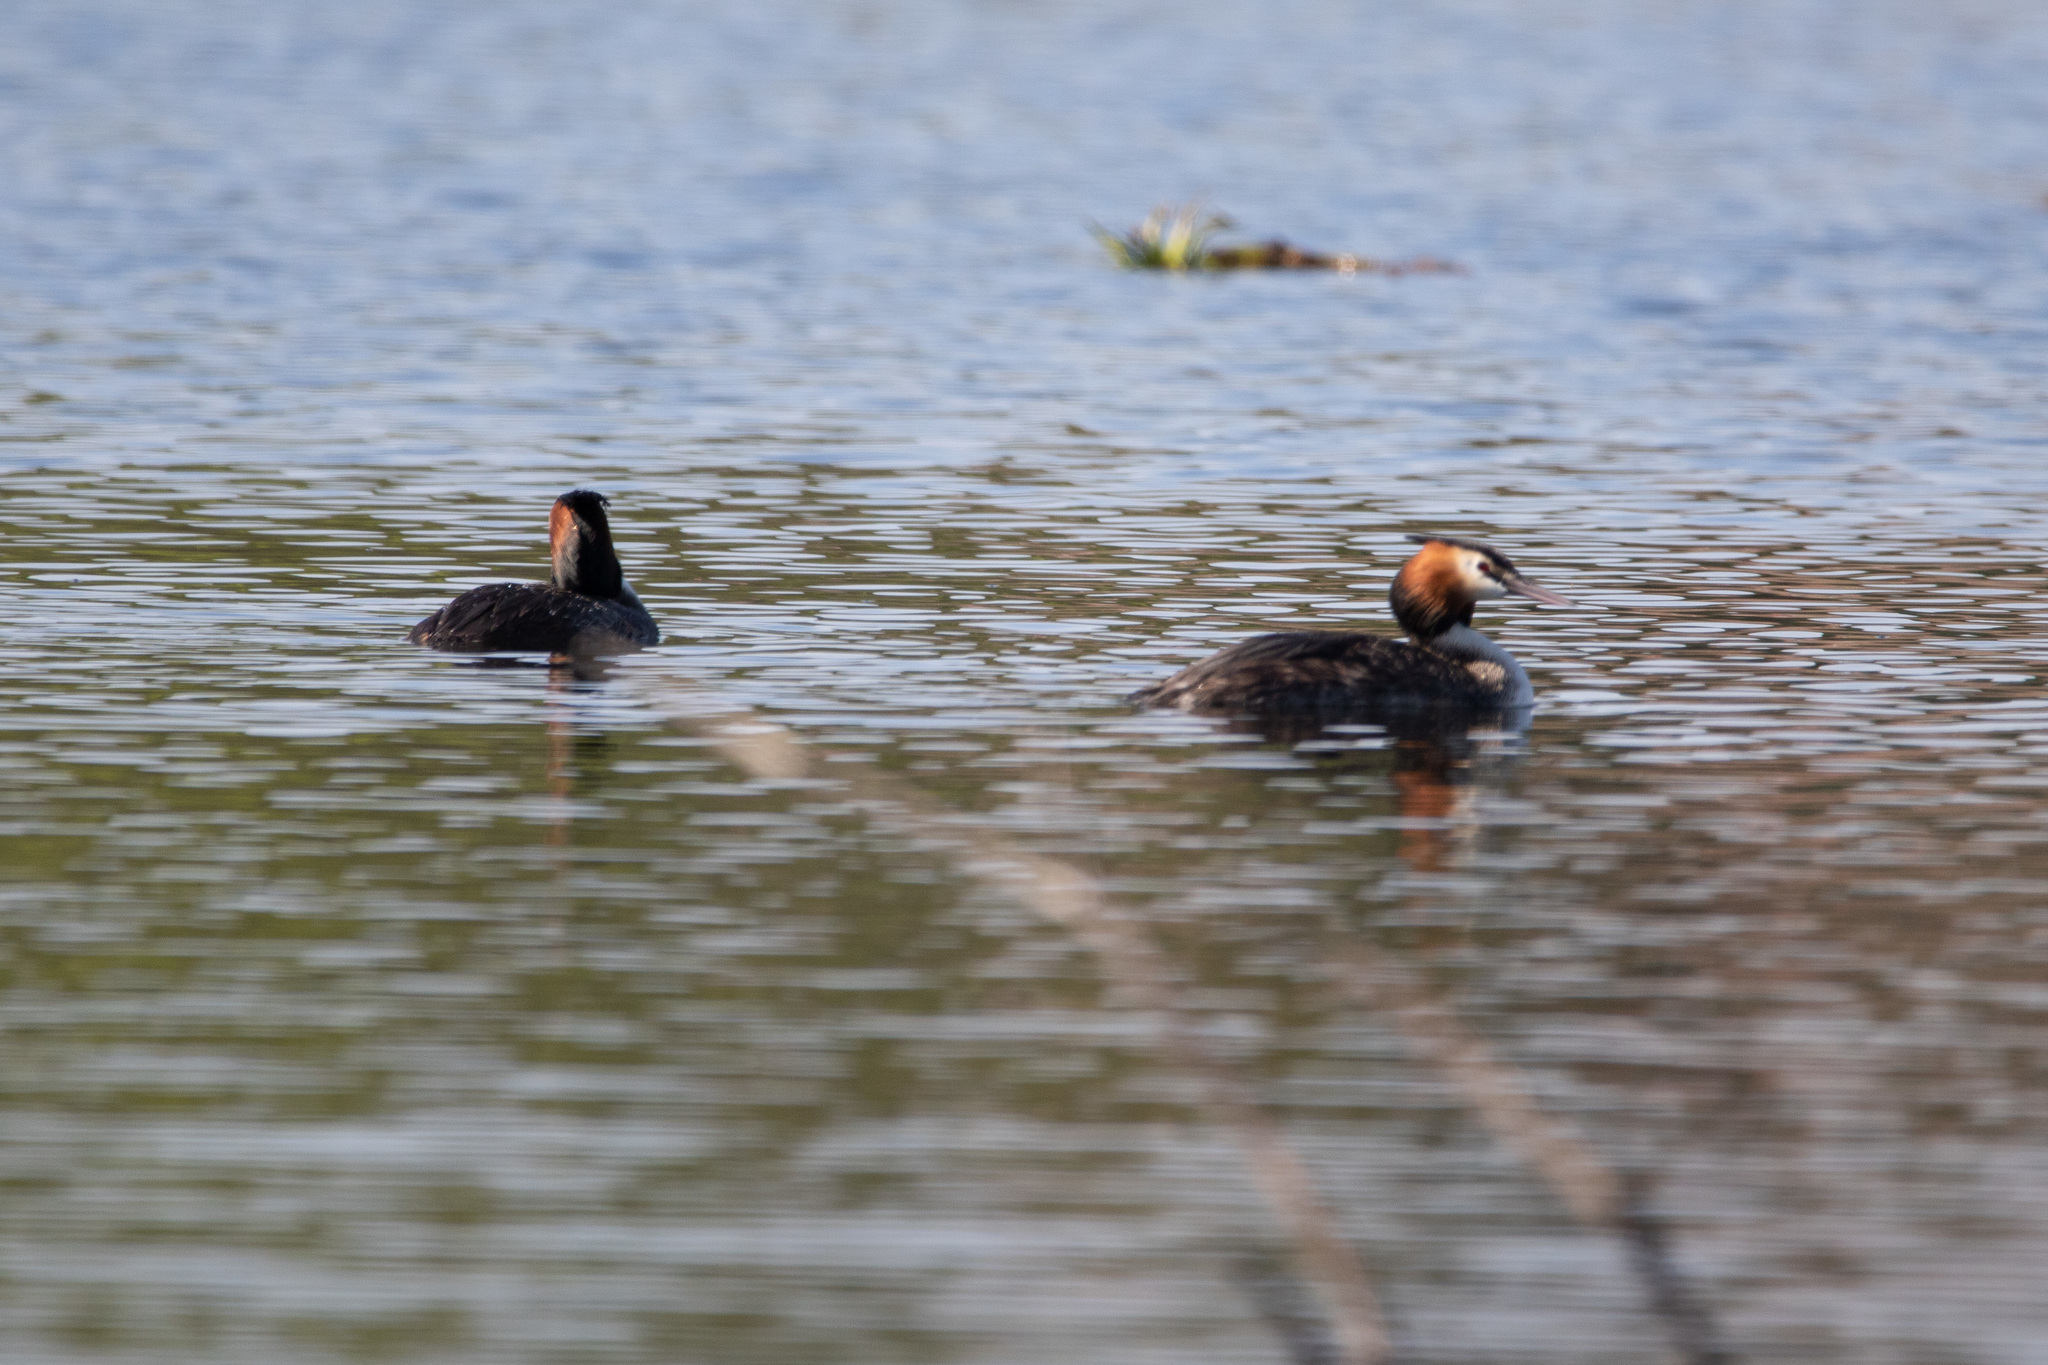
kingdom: Animalia
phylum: Chordata
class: Aves
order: Podicipediformes
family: Podicipedidae
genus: Podiceps
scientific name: Podiceps cristatus
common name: Great crested grebe
